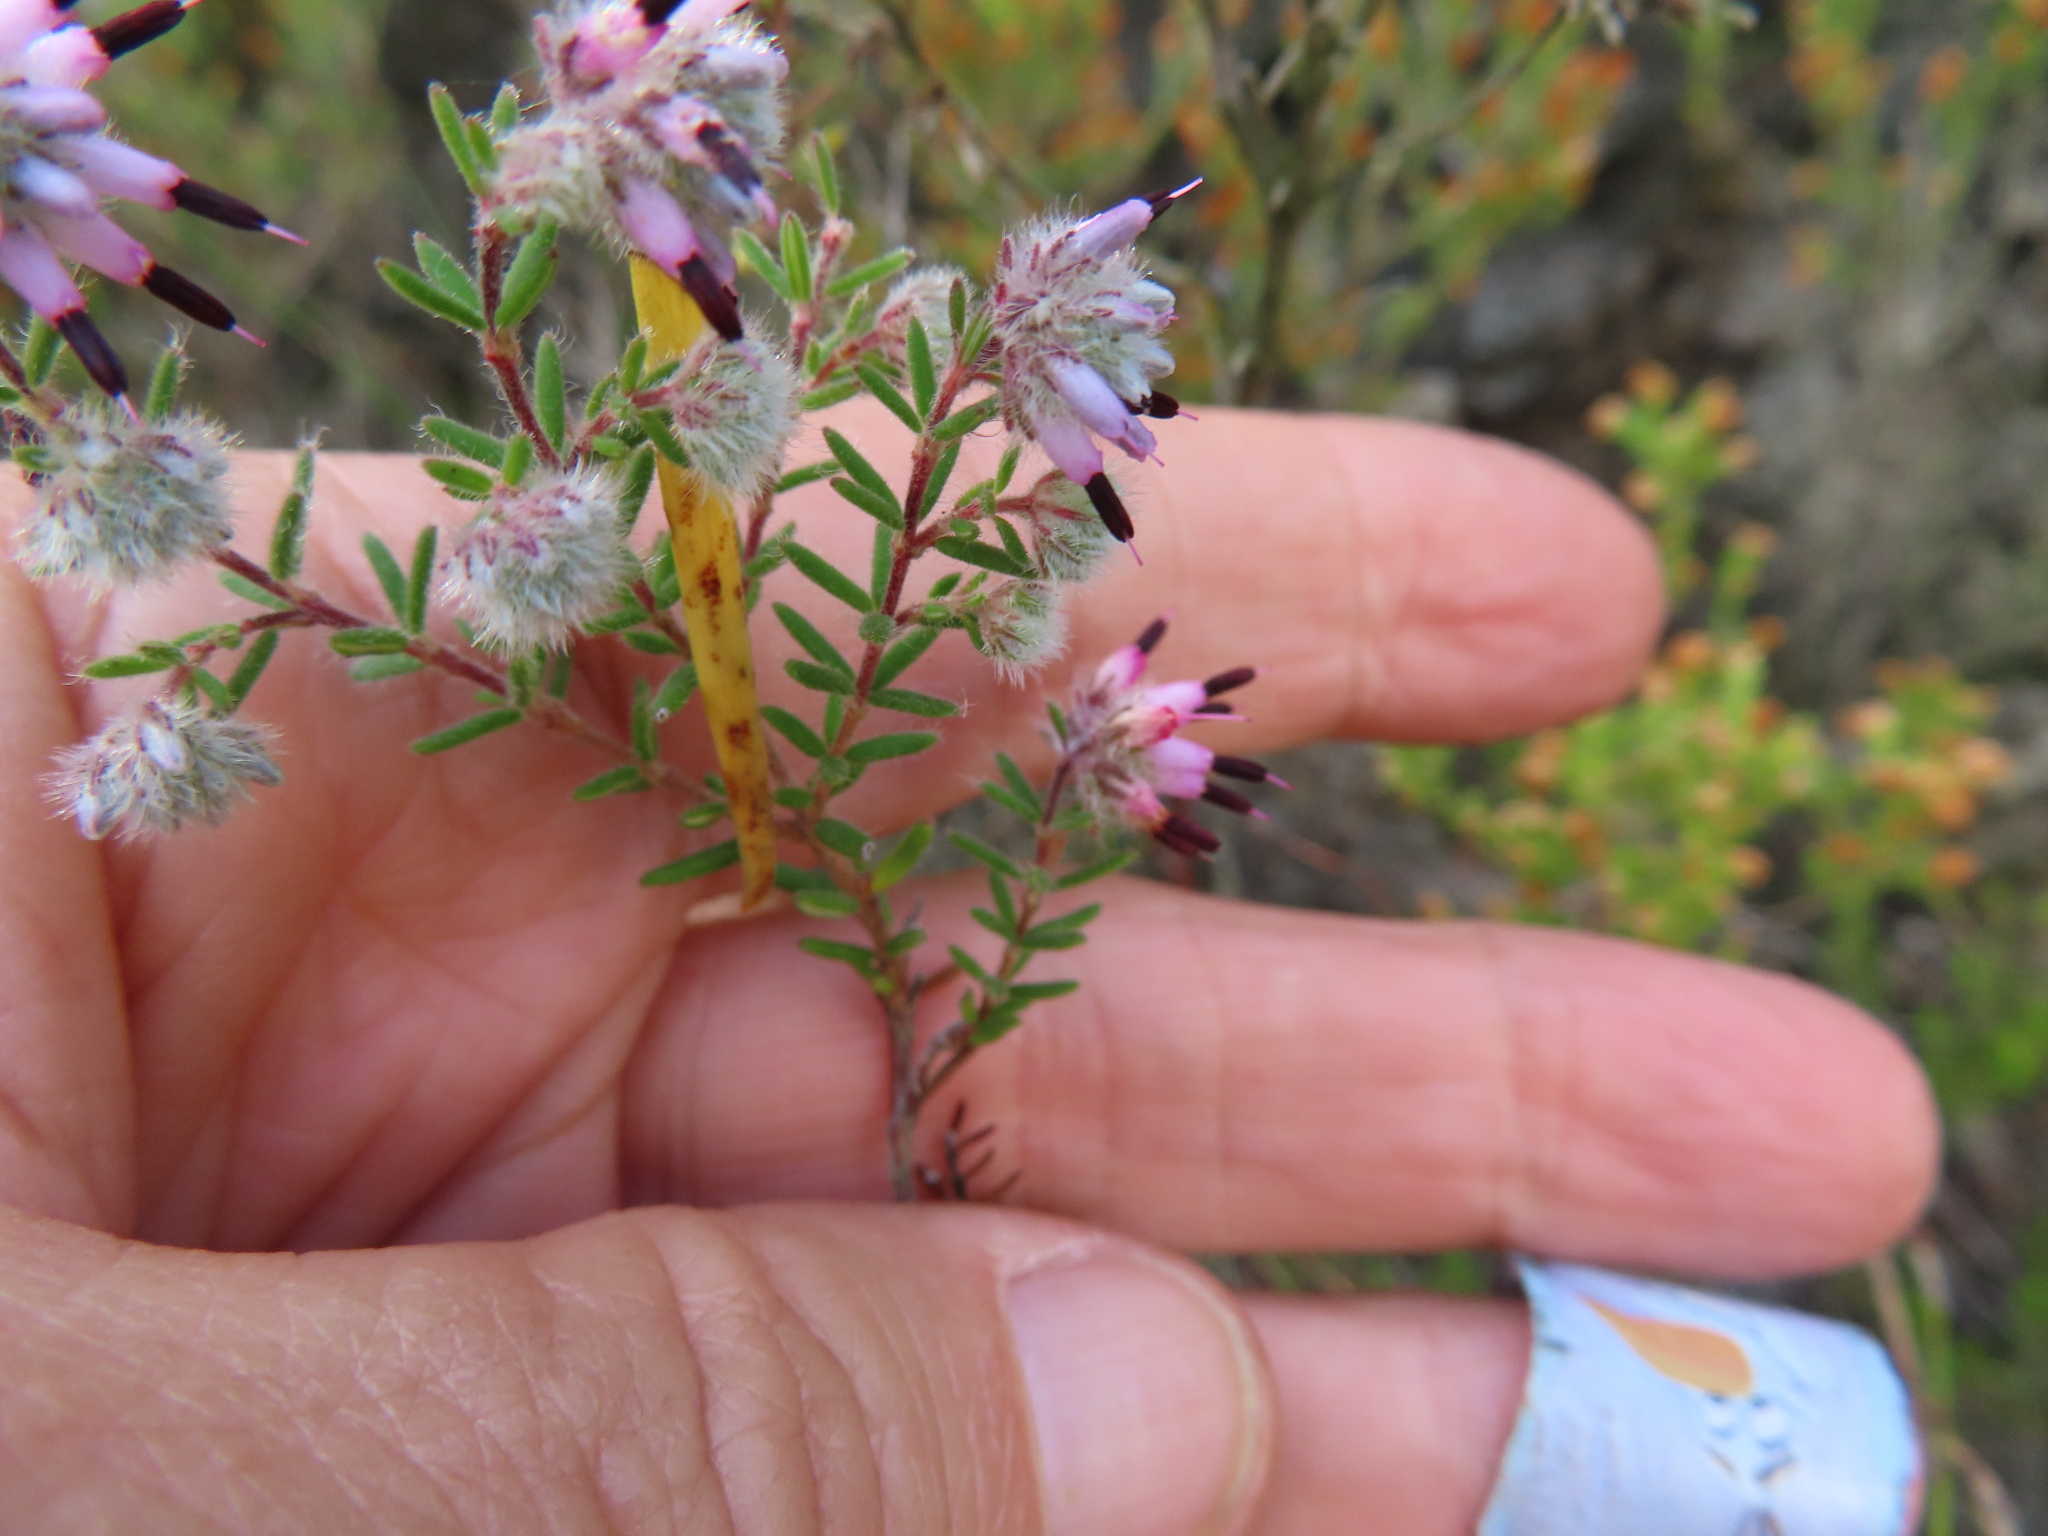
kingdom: Plantae
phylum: Tracheophyta
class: Magnoliopsida
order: Ericales
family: Ericaceae
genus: Erica
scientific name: Erica eriocephala
